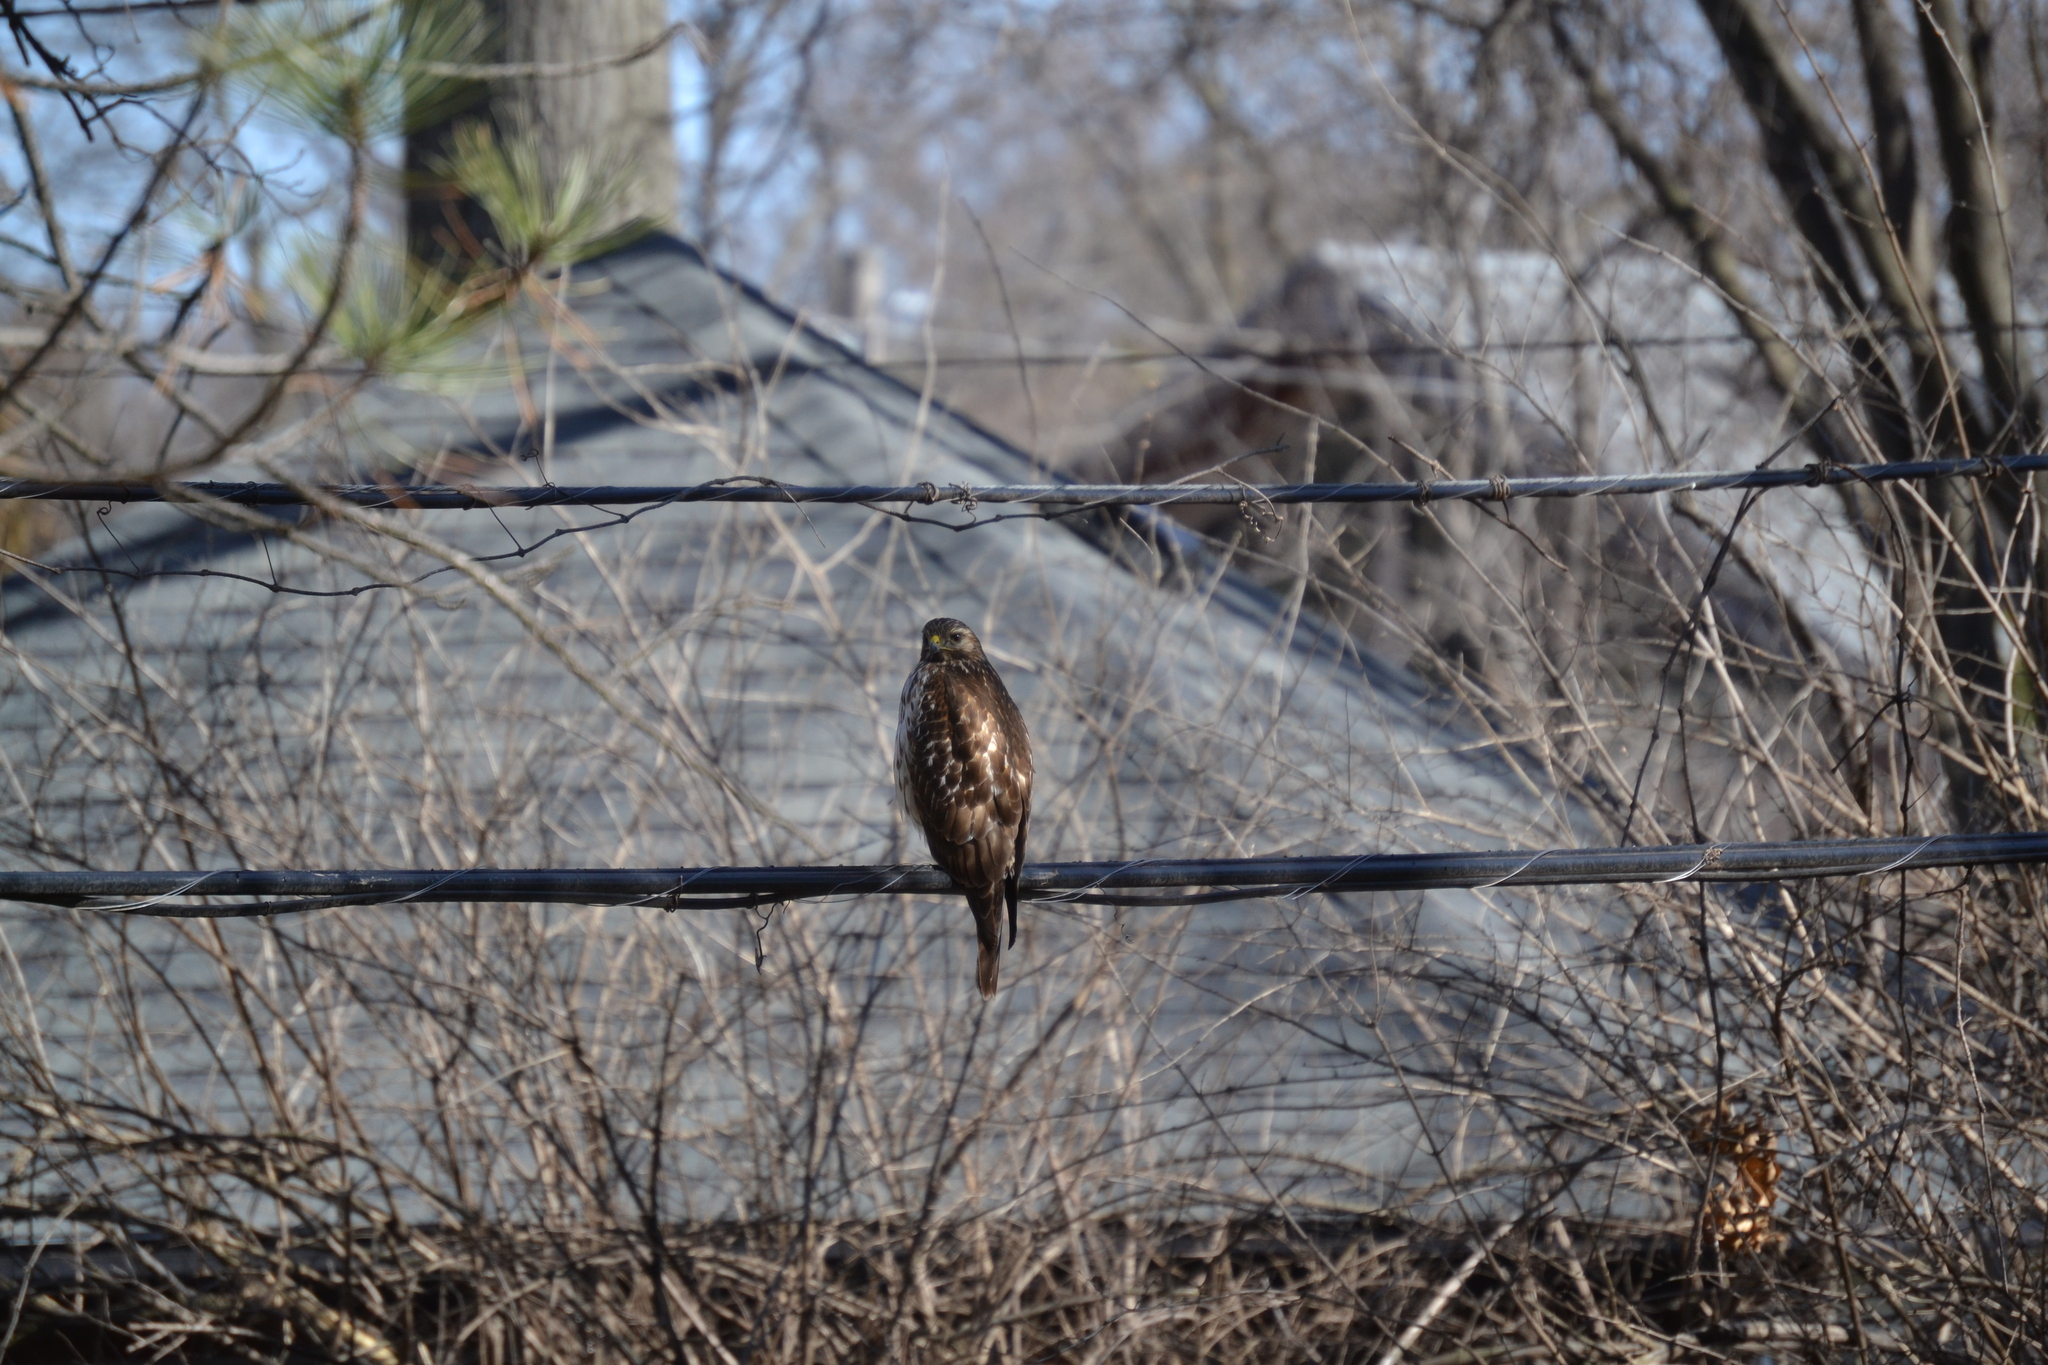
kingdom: Animalia
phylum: Chordata
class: Aves
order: Accipitriformes
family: Accipitridae
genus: Buteo
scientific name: Buteo lineatus
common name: Red-shouldered hawk
